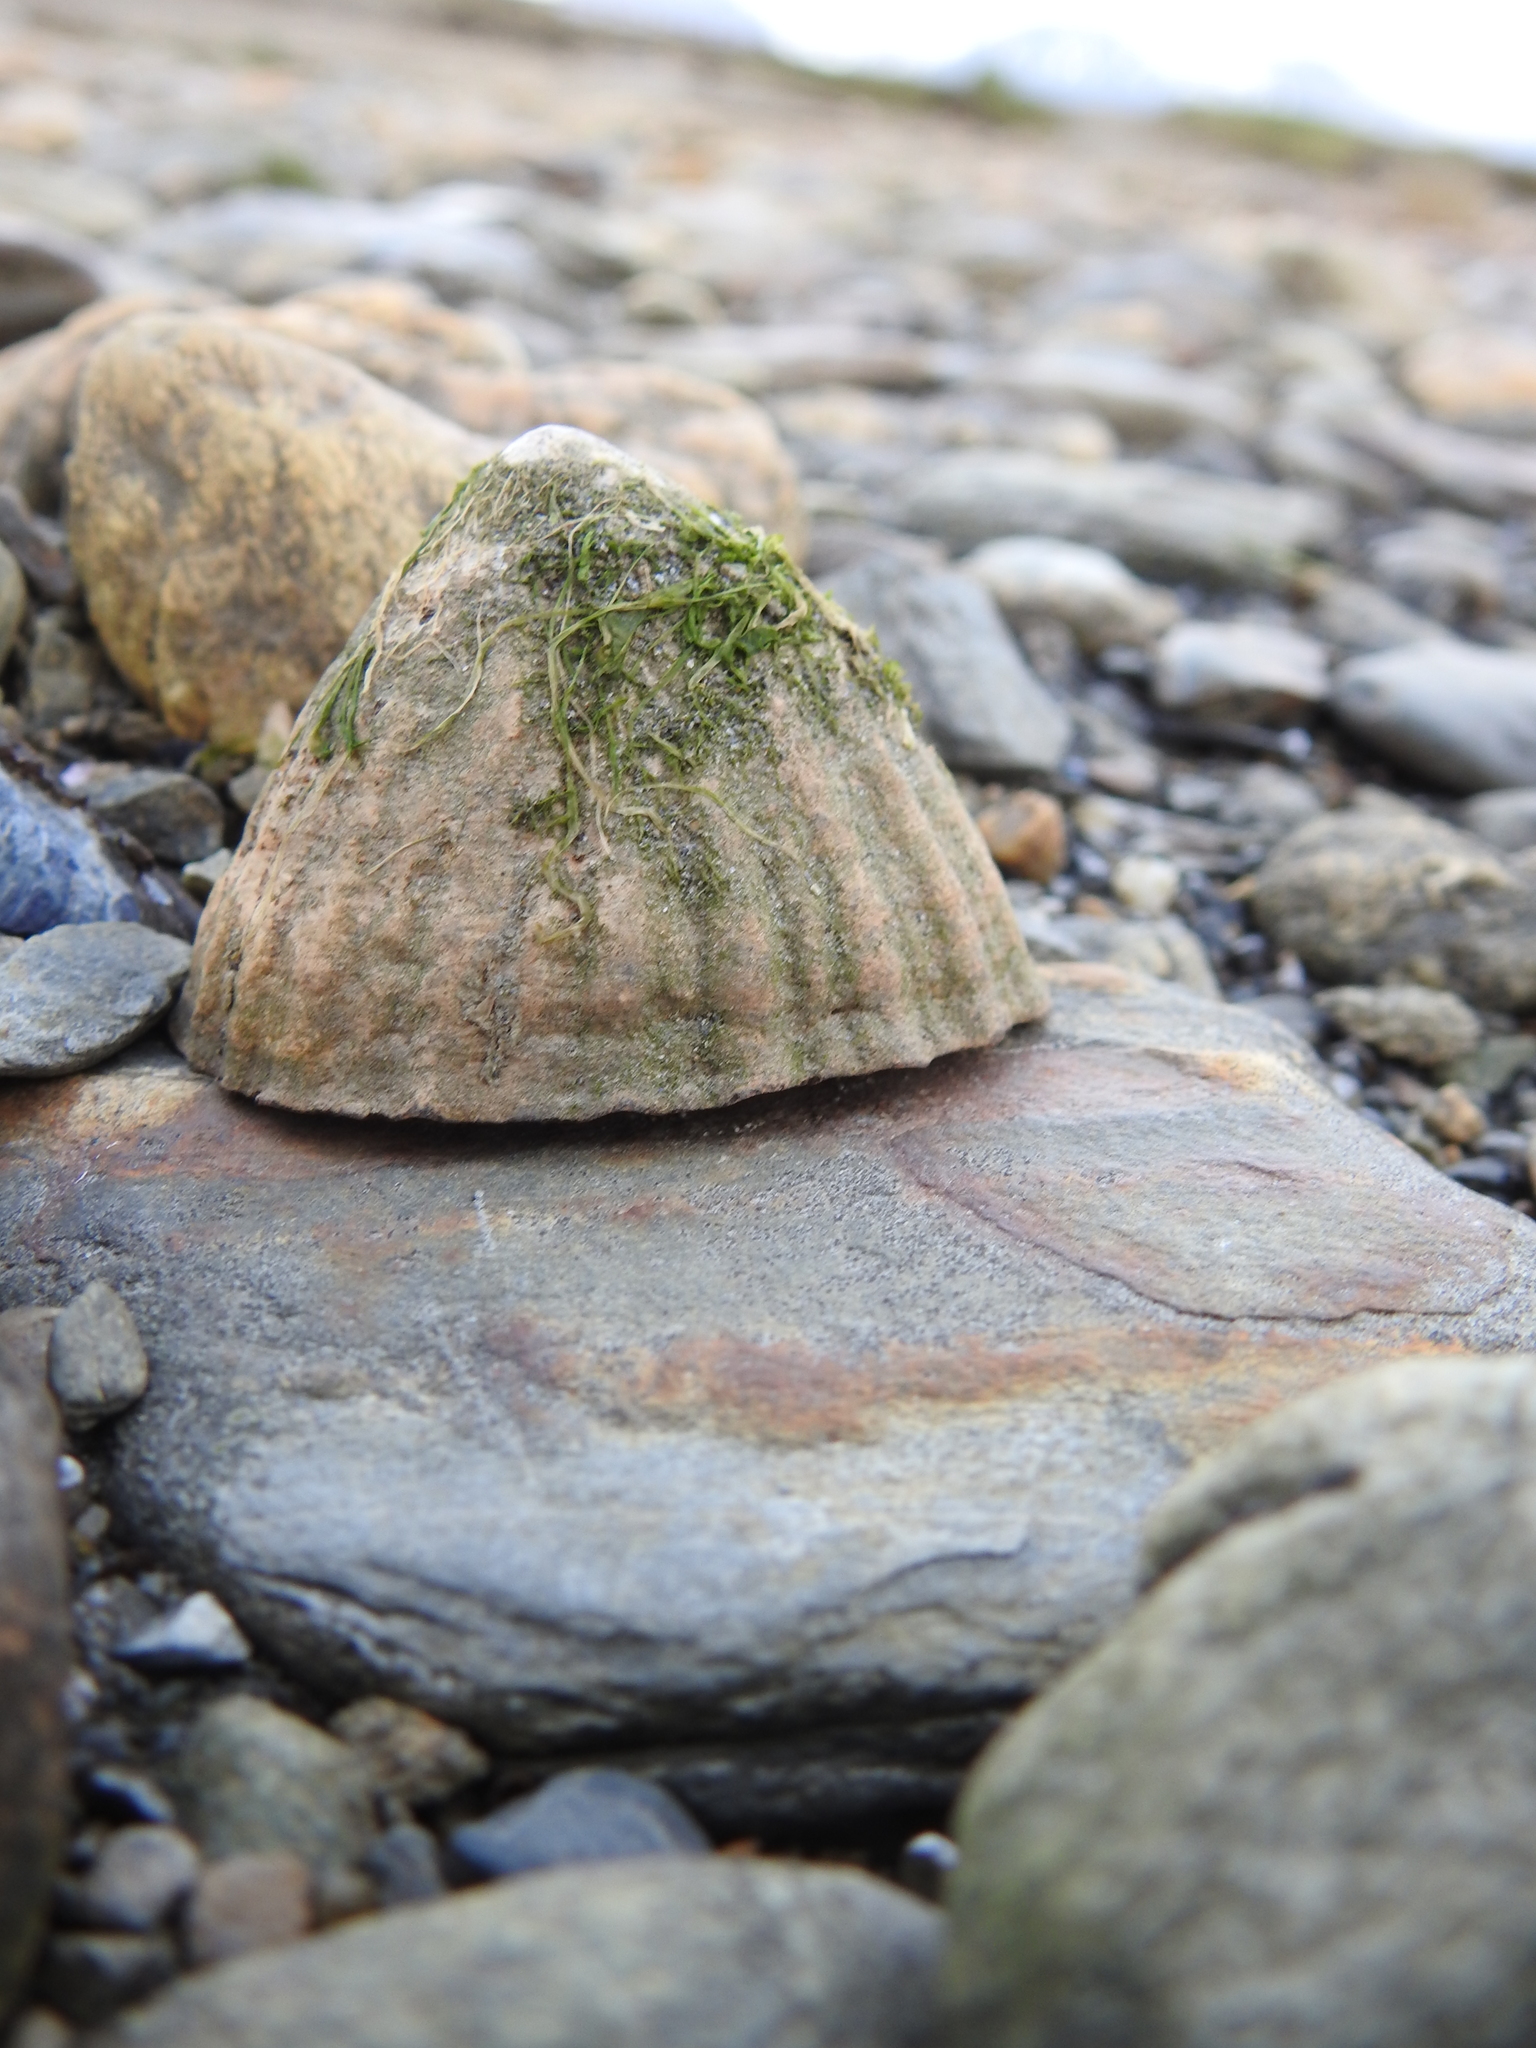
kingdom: Animalia
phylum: Mollusca
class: Gastropoda
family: Nacellidae
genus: Nacella
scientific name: Nacella magellanica
